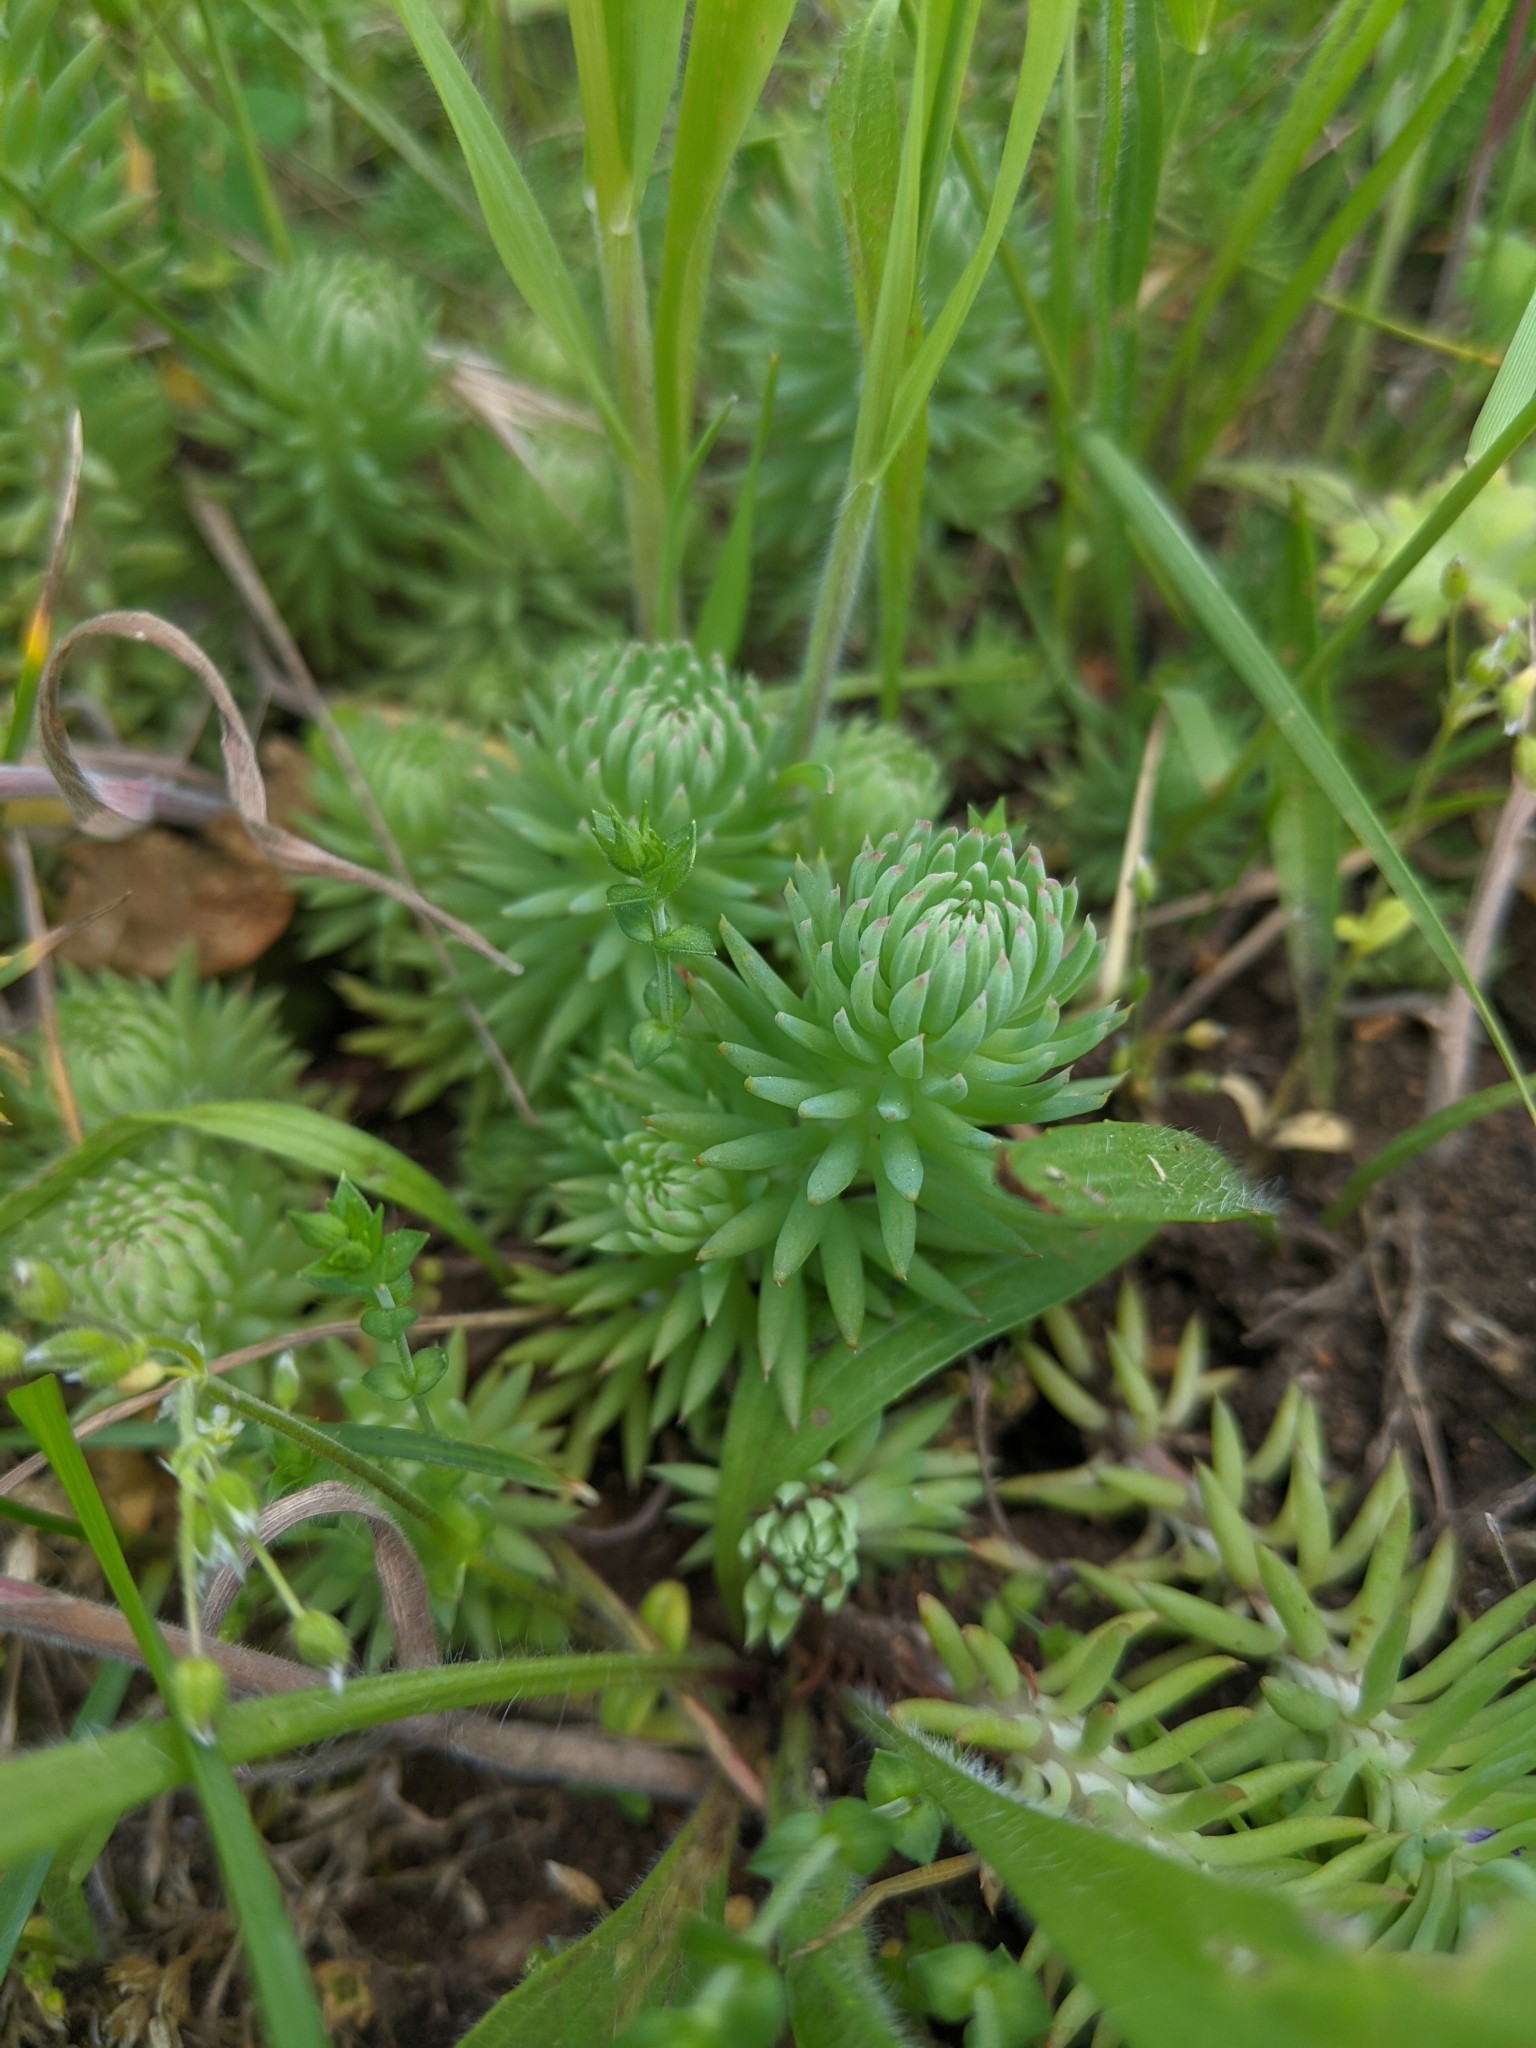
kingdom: Plantae
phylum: Tracheophyta
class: Magnoliopsida
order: Saxifragales
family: Crassulaceae
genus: Petrosedum
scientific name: Petrosedum forsterianum
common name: Forster's stonecrop
